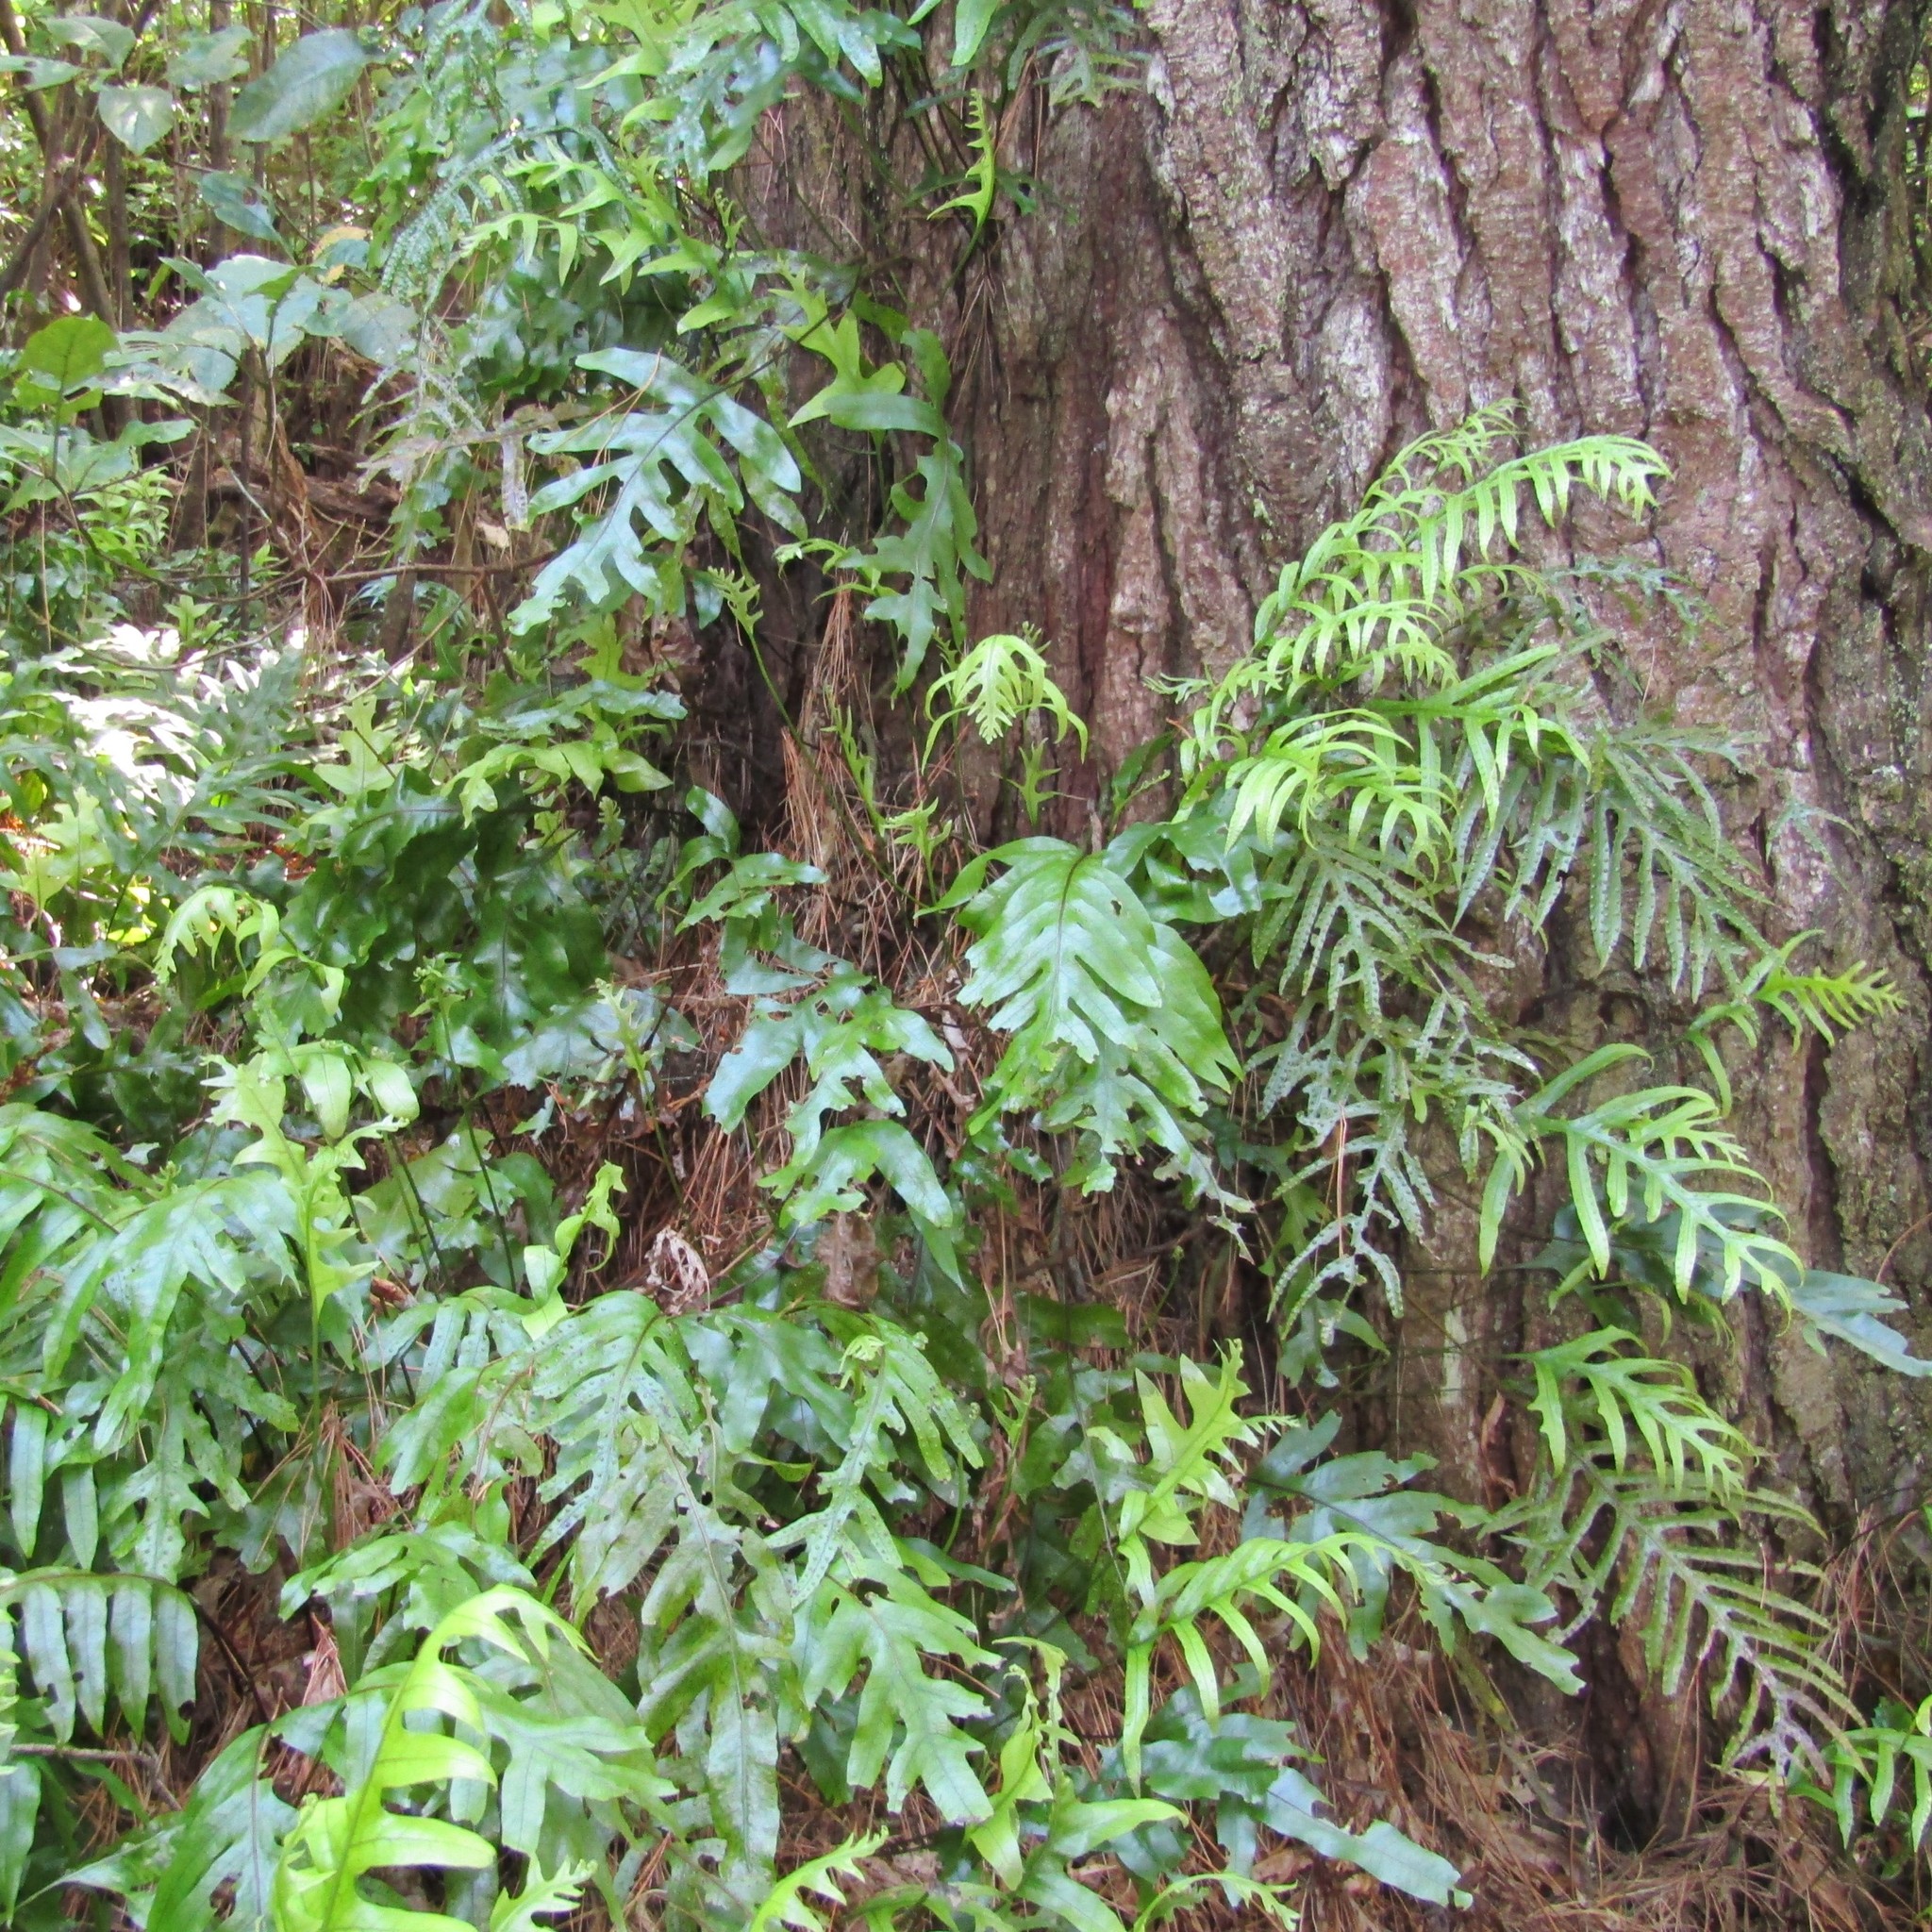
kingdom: Plantae
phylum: Tracheophyta
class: Polypodiopsida
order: Polypodiales
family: Polypodiaceae
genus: Lecanopteris
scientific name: Lecanopteris pustulata
